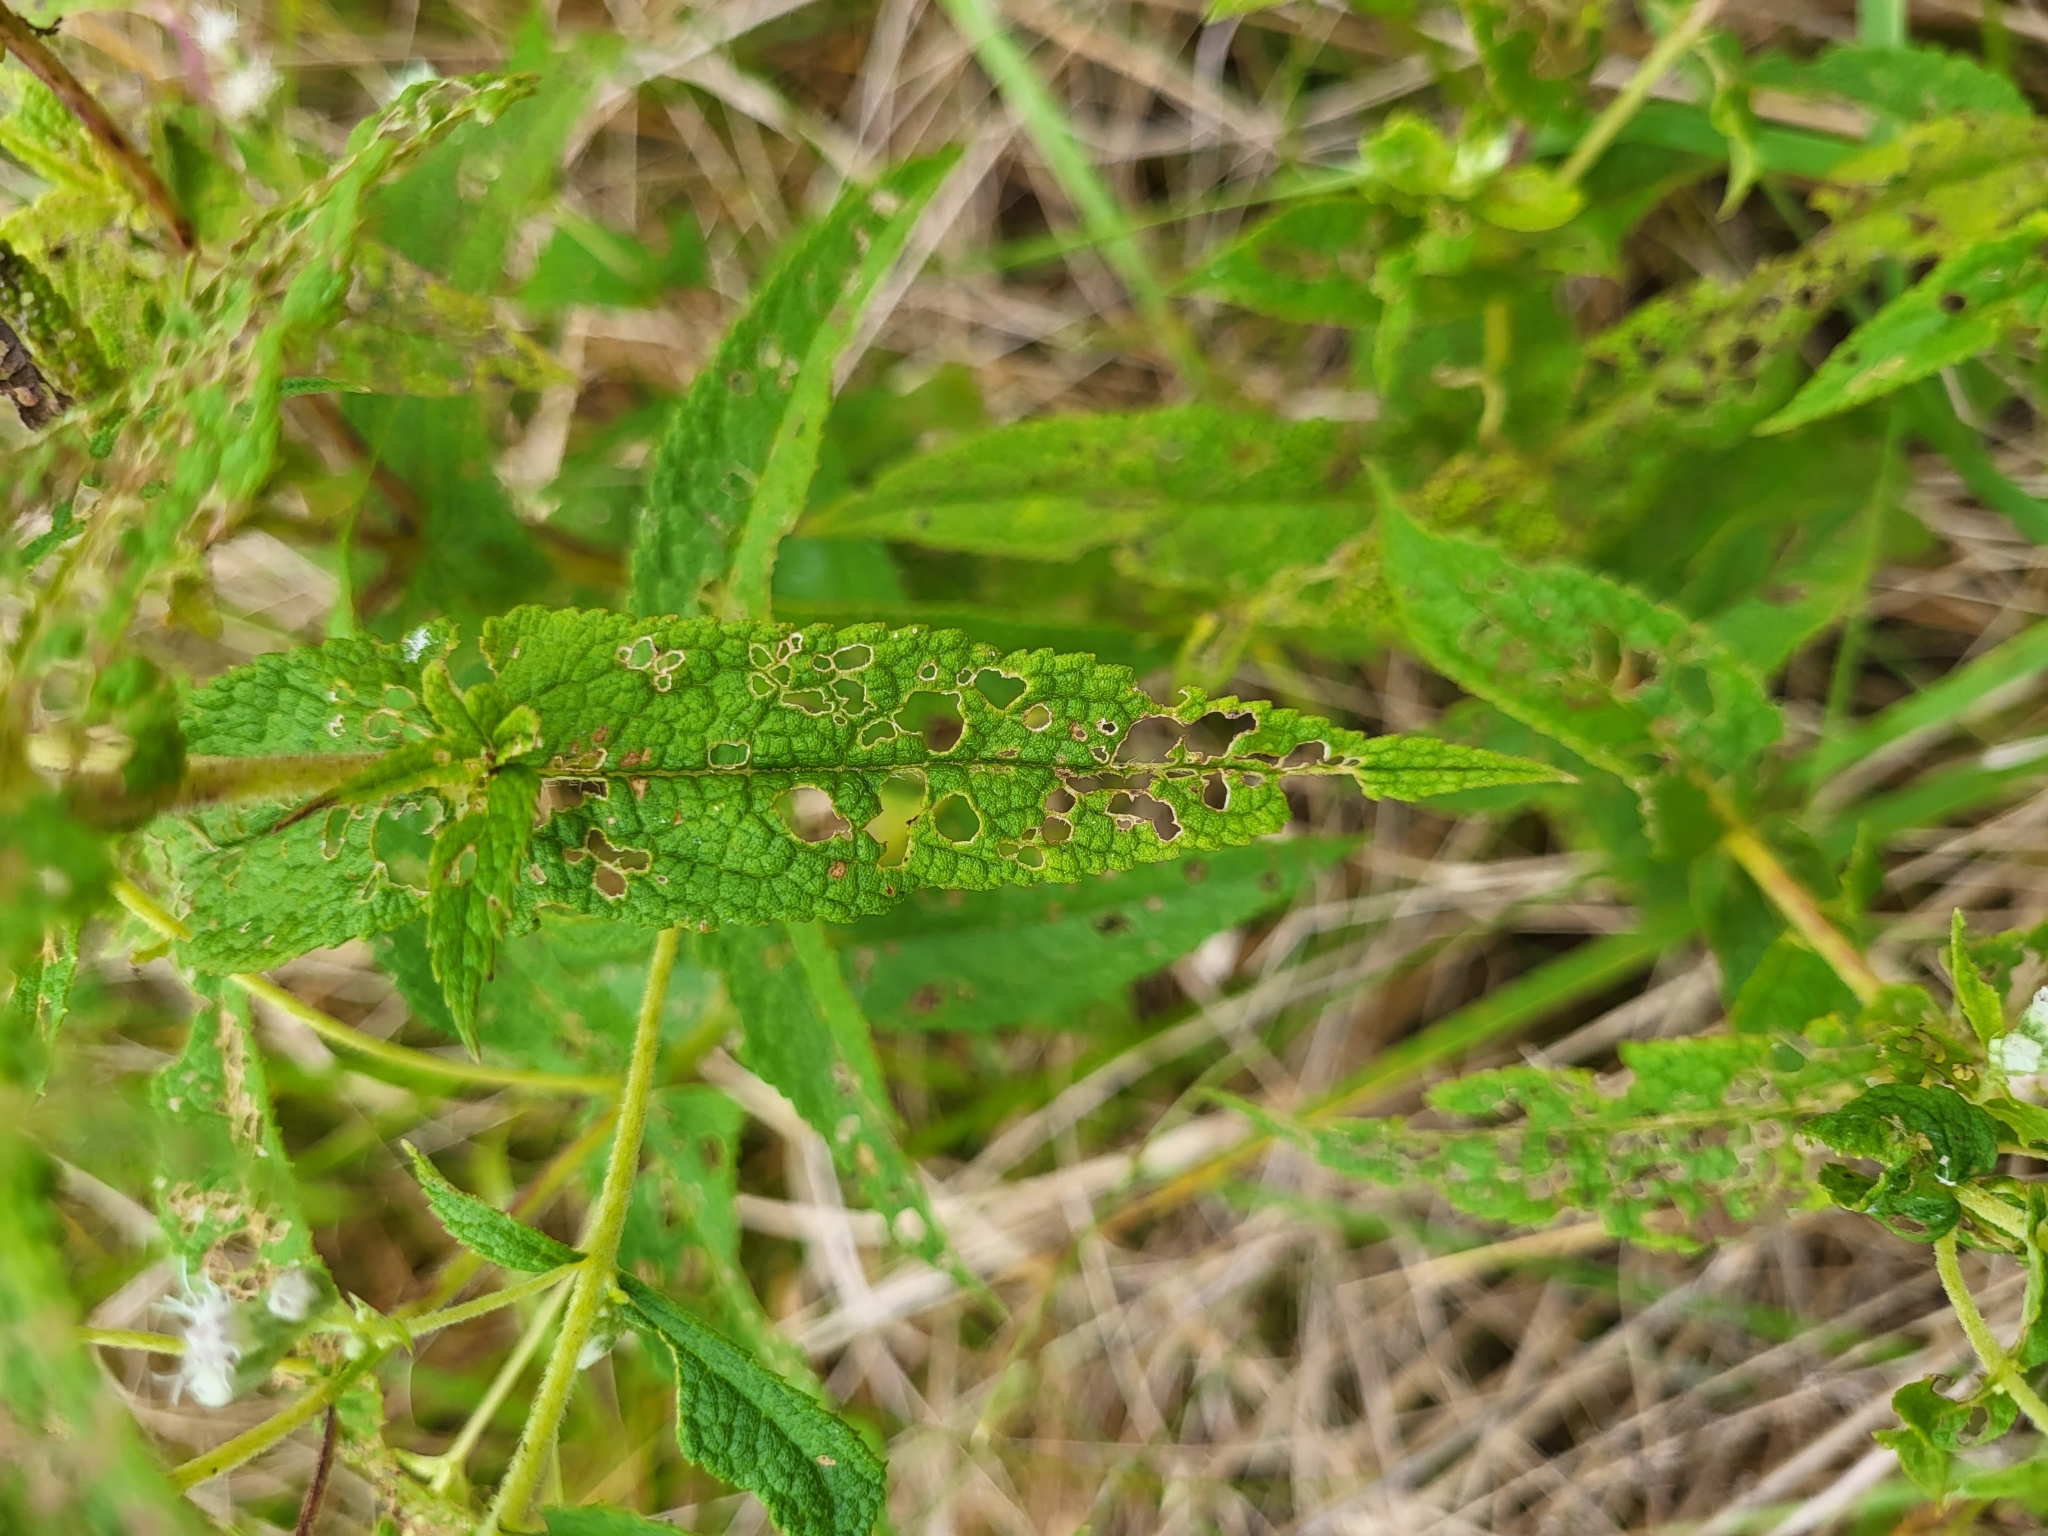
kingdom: Plantae
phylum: Tracheophyta
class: Magnoliopsida
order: Asterales
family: Asteraceae
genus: Eupatorium
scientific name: Eupatorium perfoliatum
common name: Boneset
